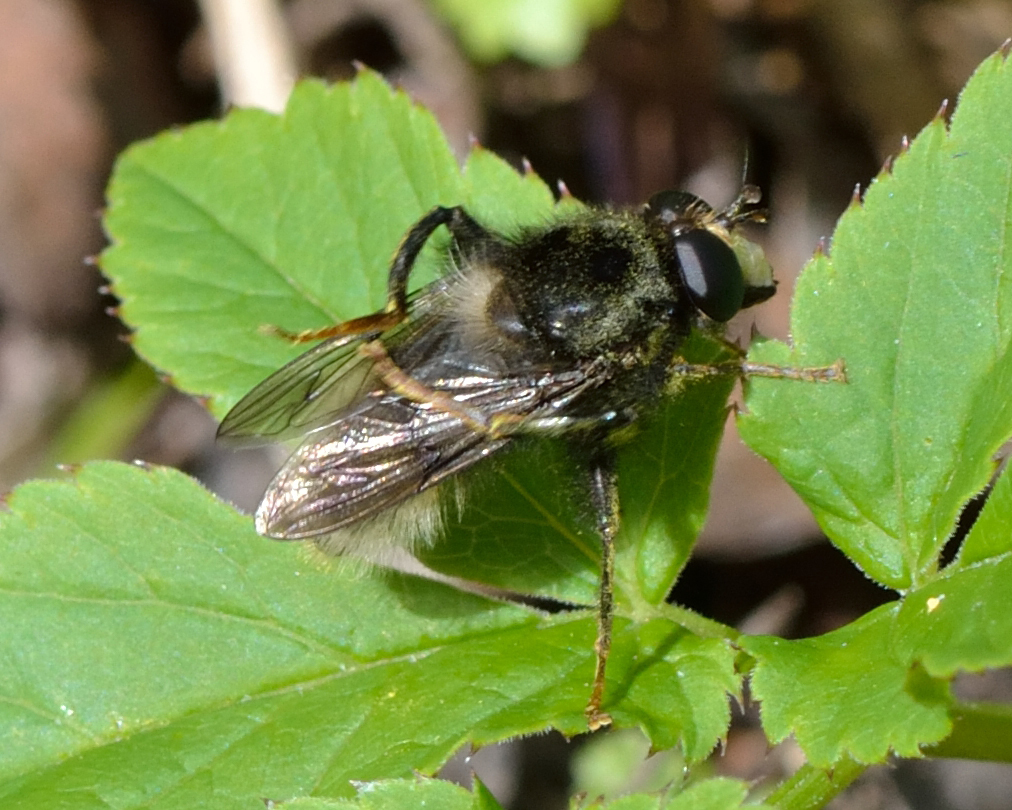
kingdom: Animalia
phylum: Arthropoda
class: Insecta
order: Diptera
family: Syrphidae
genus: Criorhina
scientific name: Criorhina ranunculi
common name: Large bear hoverfly
